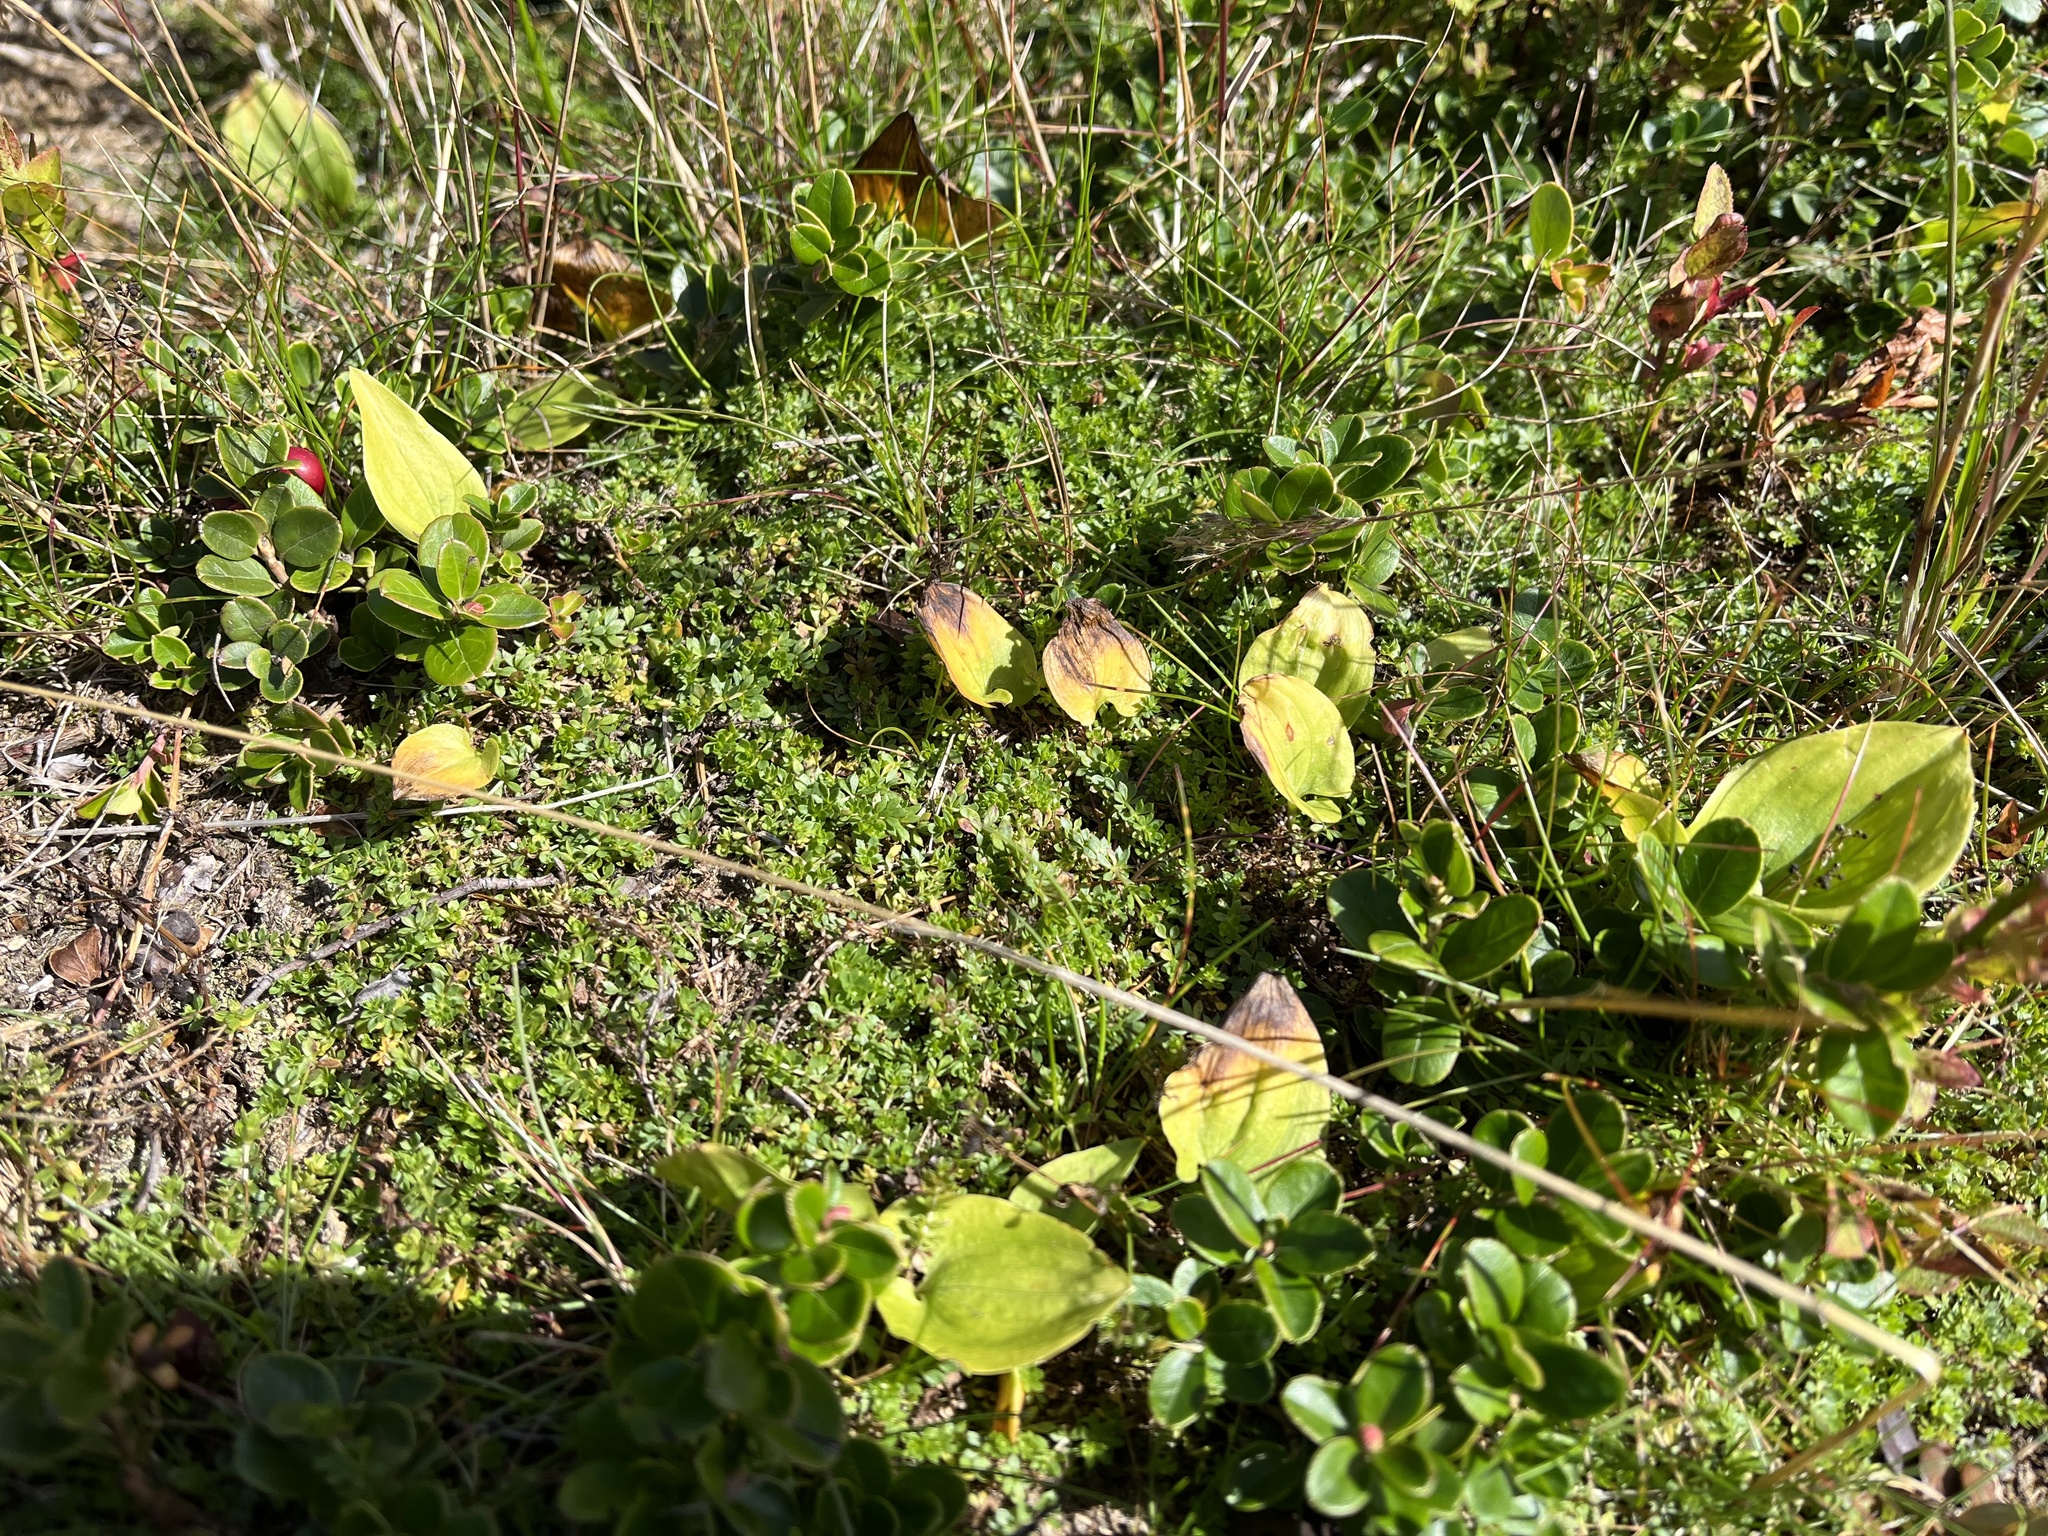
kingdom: Plantae
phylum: Tracheophyta
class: Liliopsida
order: Asparagales
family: Asparagaceae
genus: Maianthemum
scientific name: Maianthemum bifolium
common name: May lily
